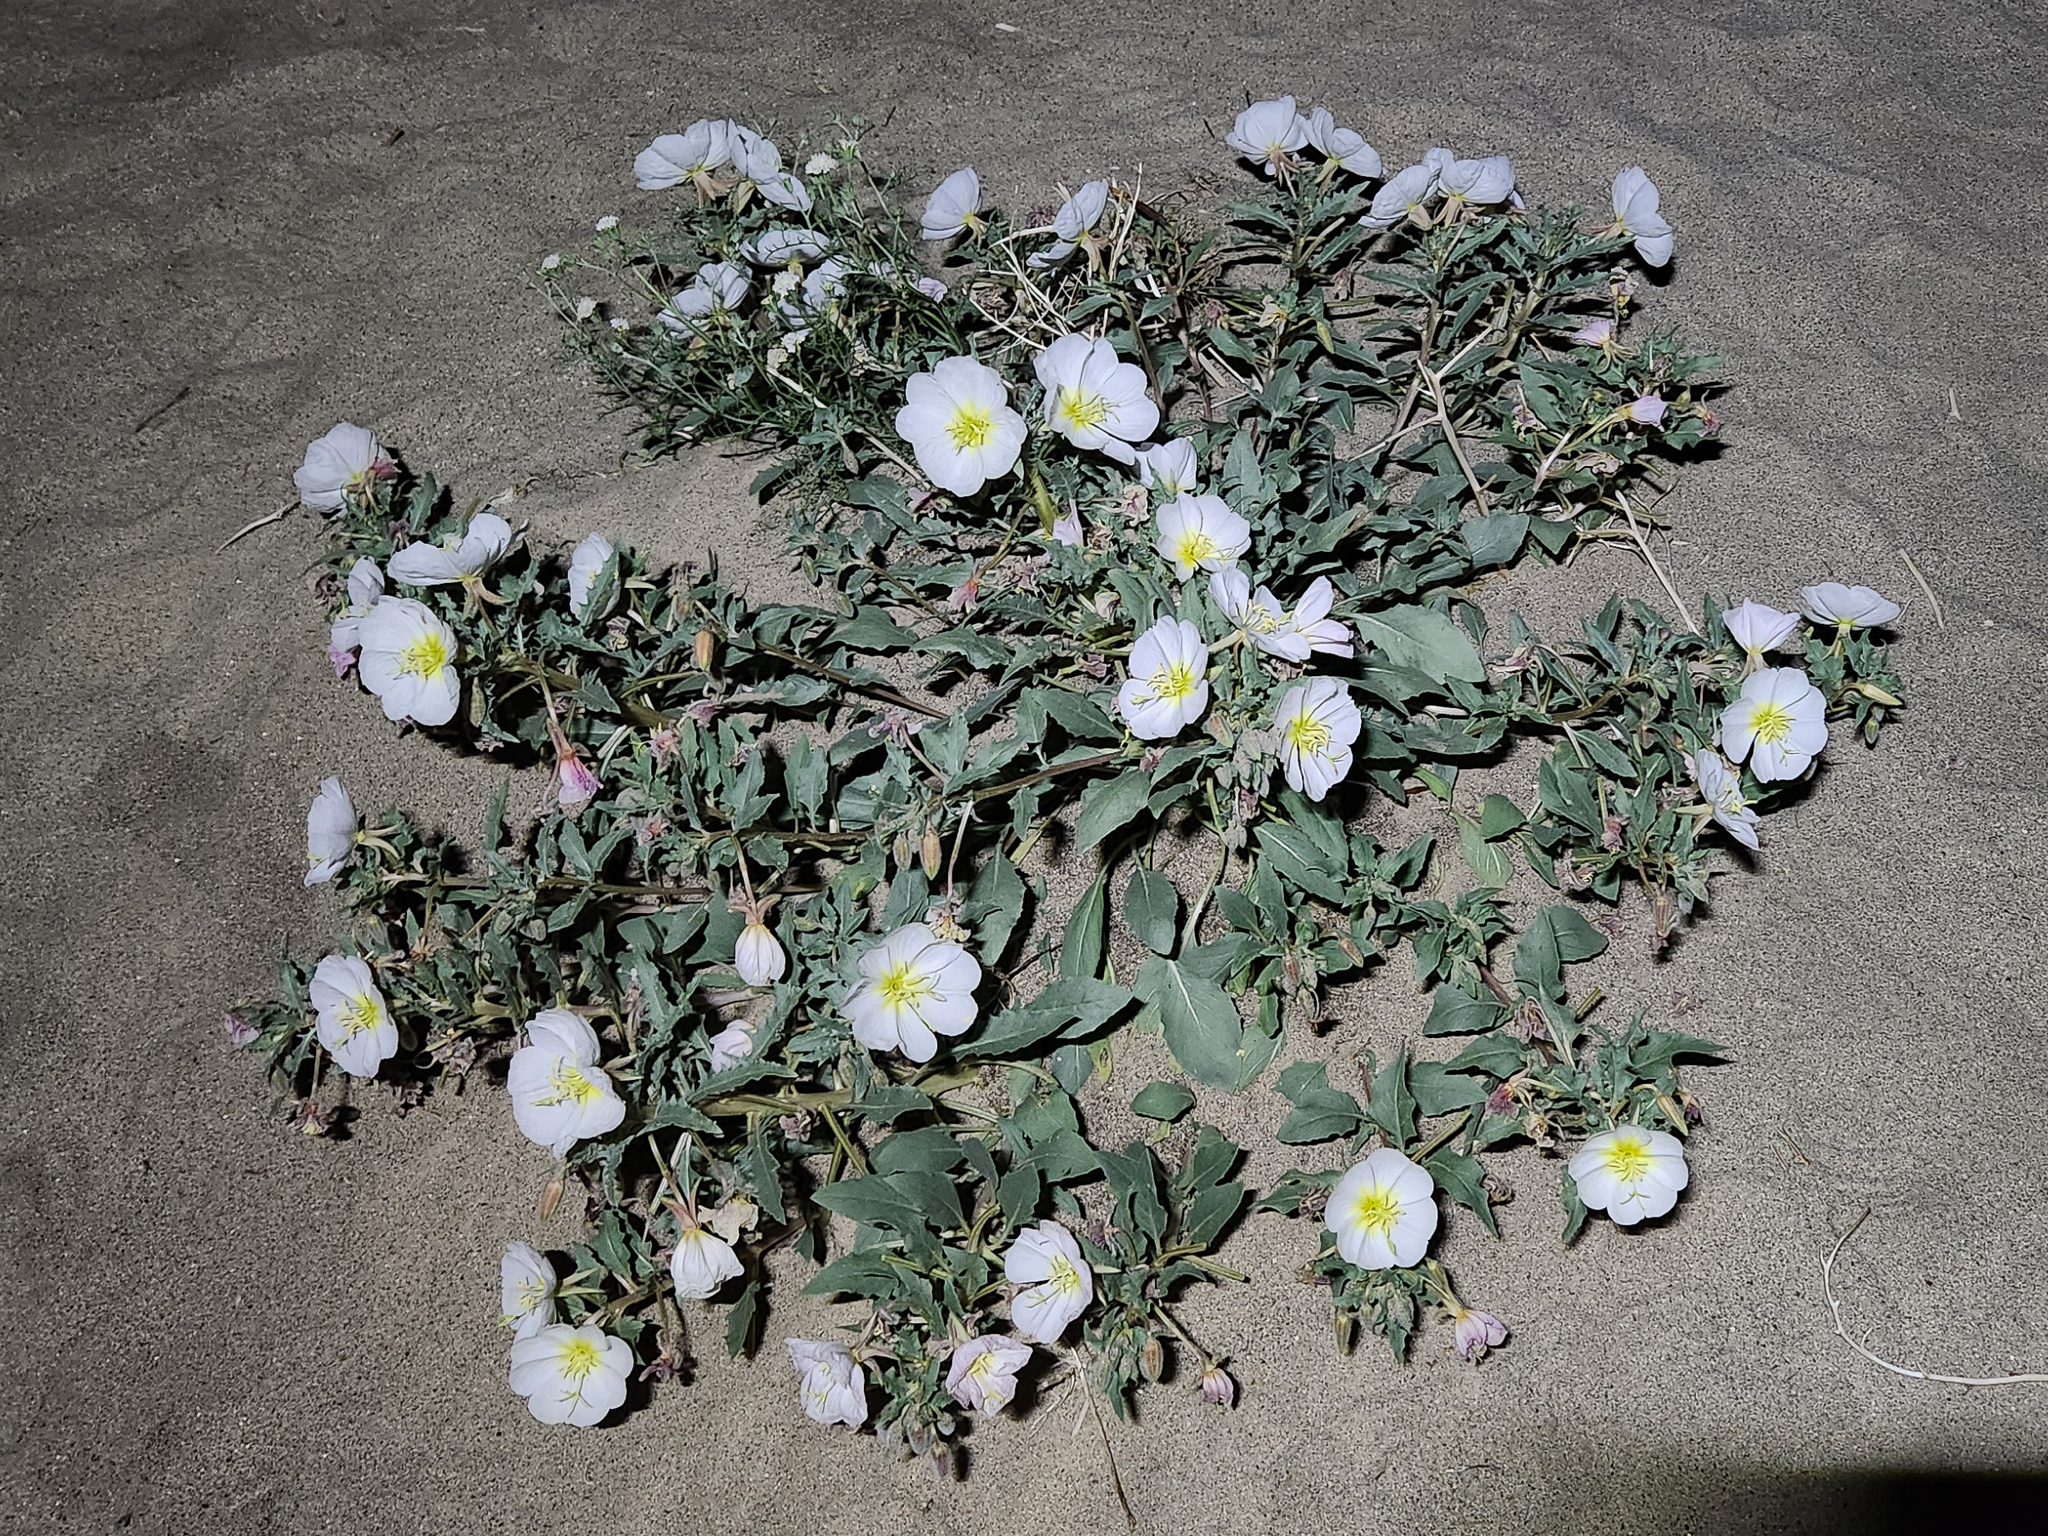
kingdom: Plantae
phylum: Tracheophyta
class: Magnoliopsida
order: Myrtales
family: Onagraceae
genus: Oenothera
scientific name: Oenothera deltoides
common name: Basket evening-primrose
